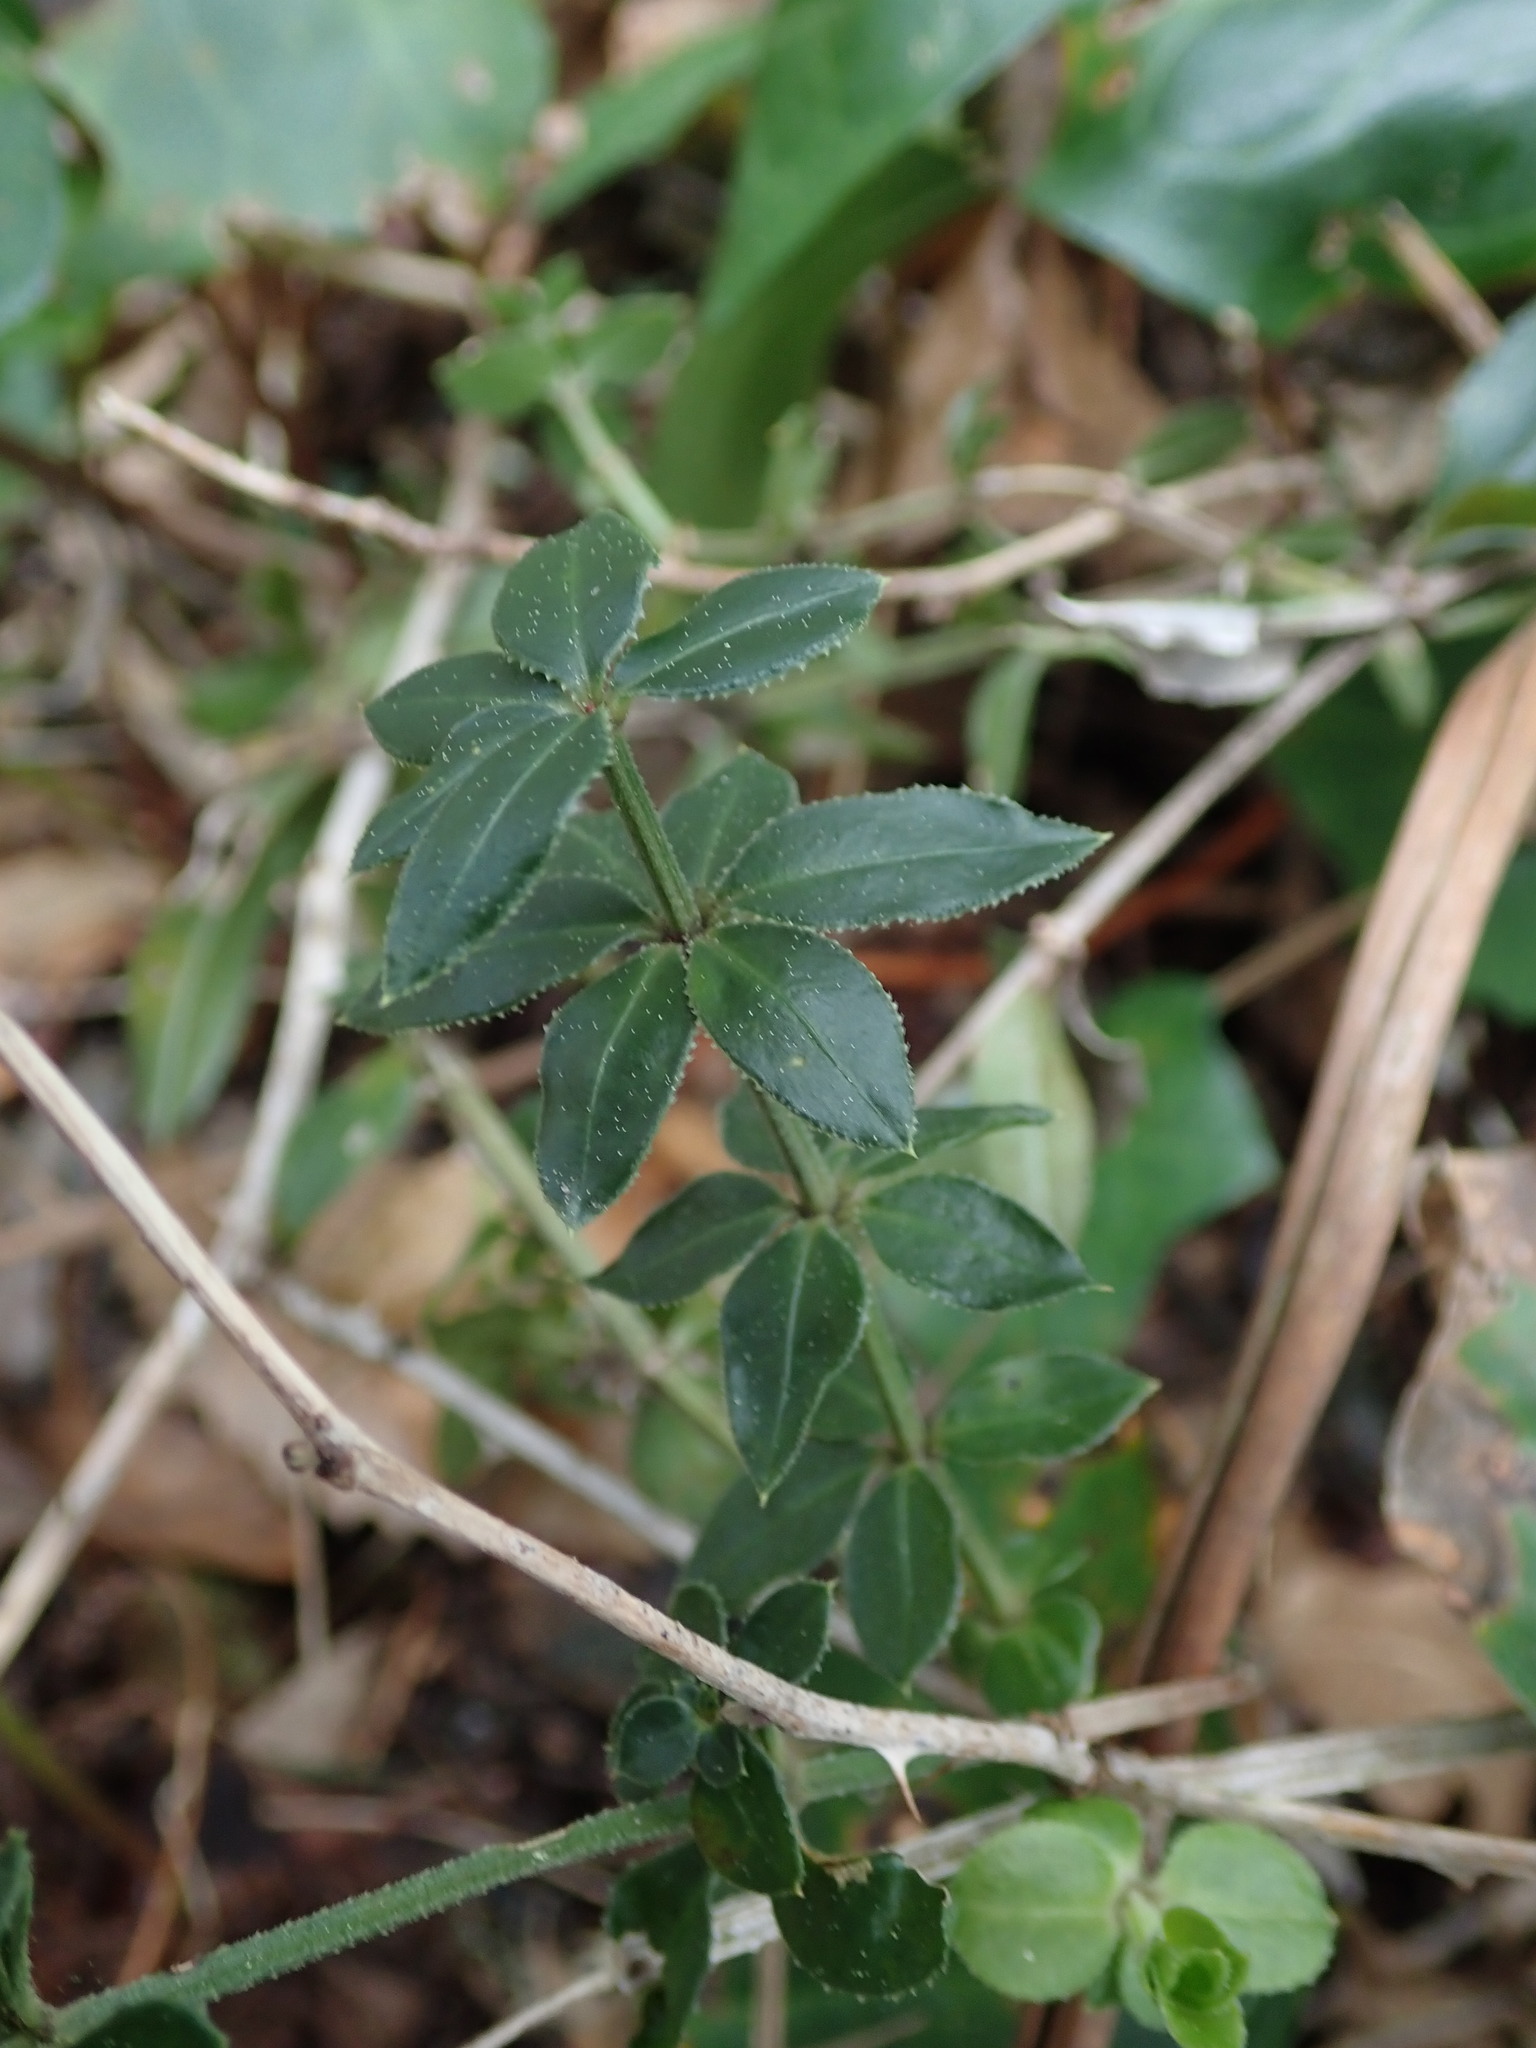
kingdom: Plantae
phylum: Tracheophyta
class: Magnoliopsida
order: Gentianales
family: Rubiaceae
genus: Rubia
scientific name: Rubia peregrina
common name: Wild madder
